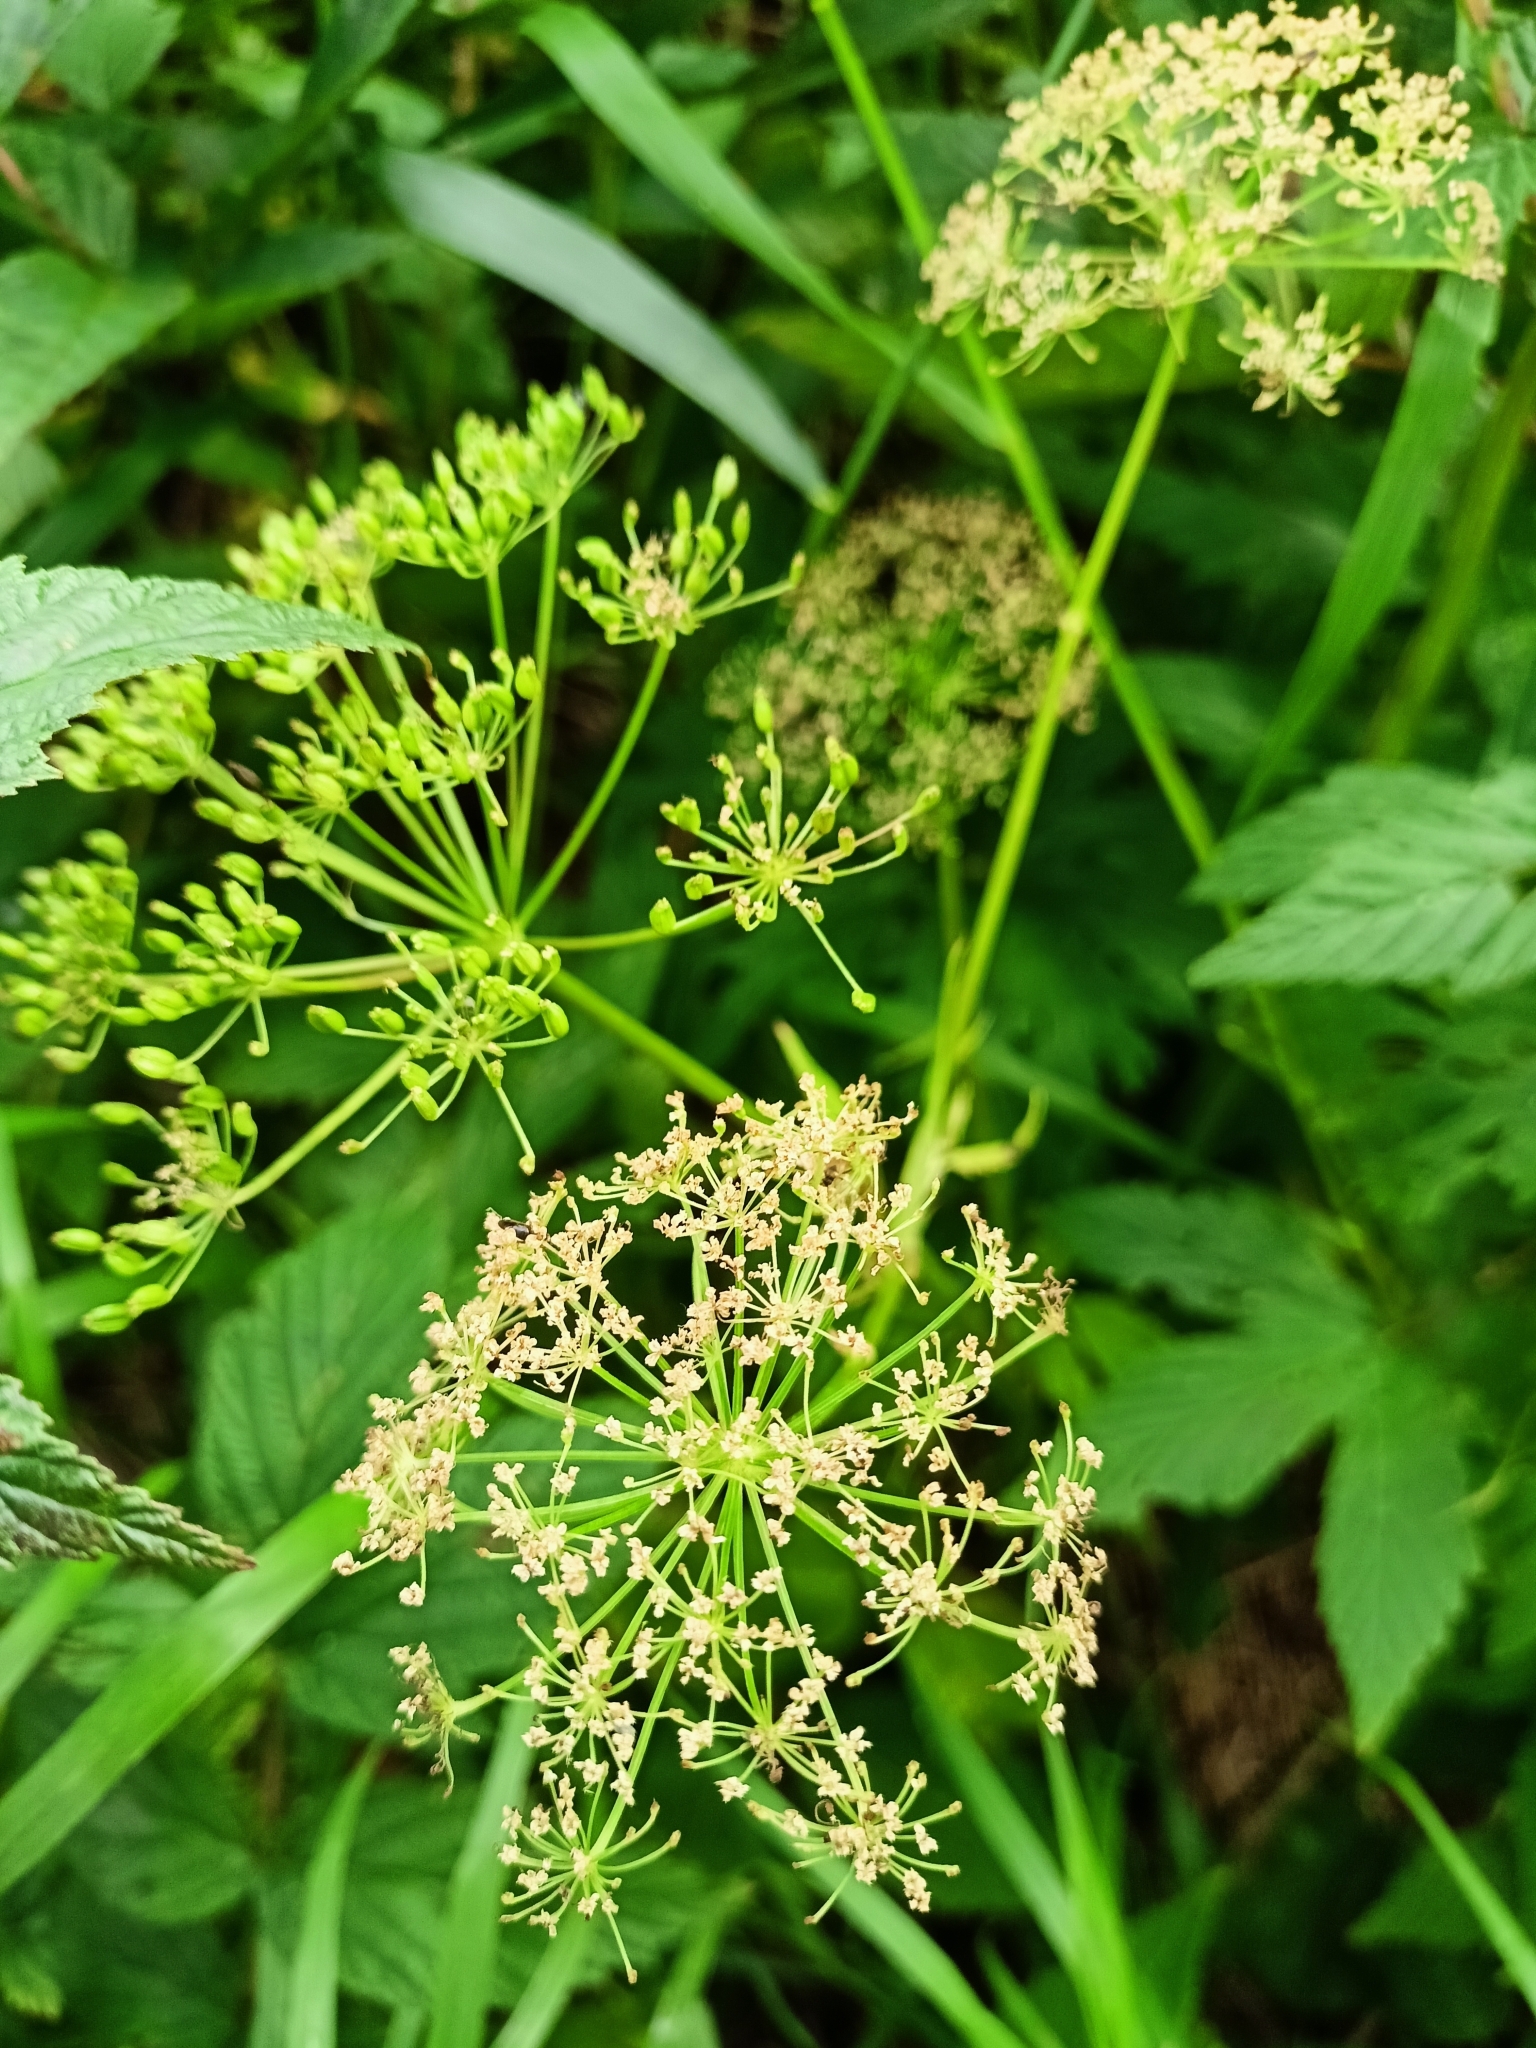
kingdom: Plantae
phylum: Tracheophyta
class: Magnoliopsida
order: Apiales
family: Apiaceae
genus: Aegopodium
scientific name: Aegopodium podagraria
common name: Ground-elder
